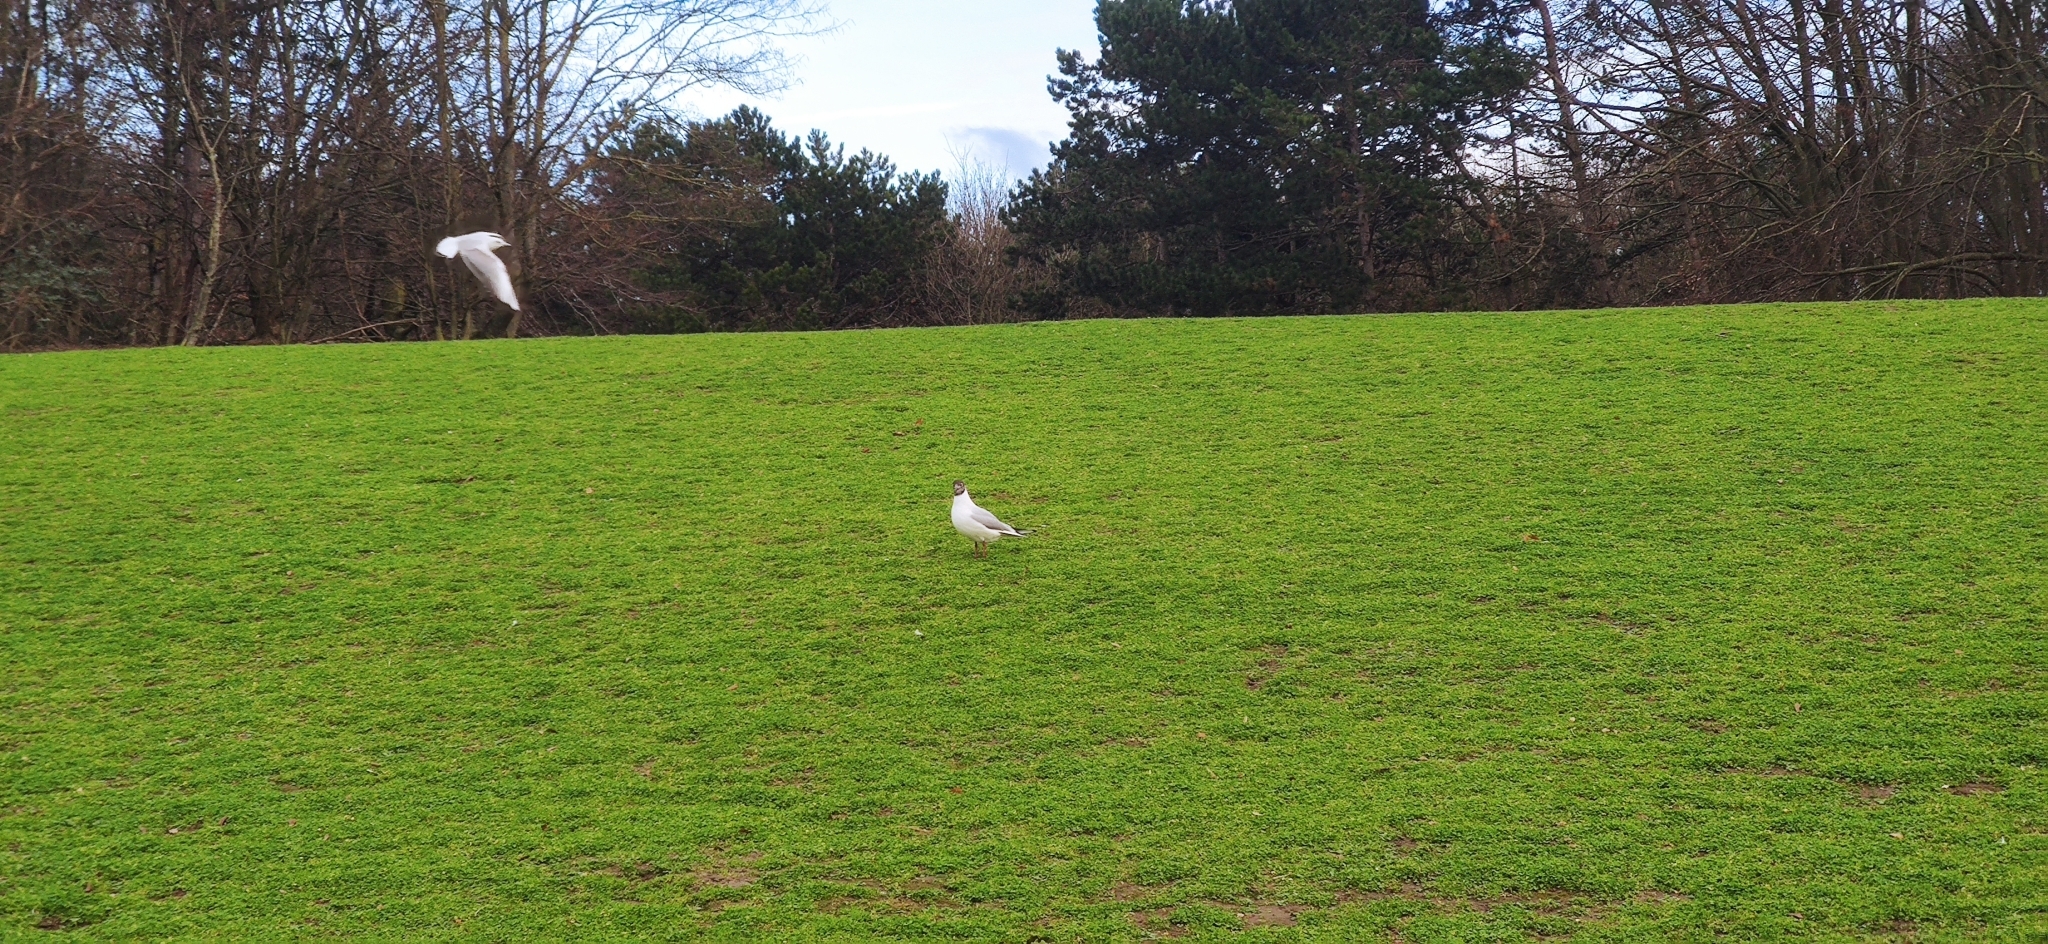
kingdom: Animalia
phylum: Chordata
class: Aves
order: Charadriiformes
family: Laridae
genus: Chroicocephalus
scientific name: Chroicocephalus ridibundus
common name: Black-headed gull
